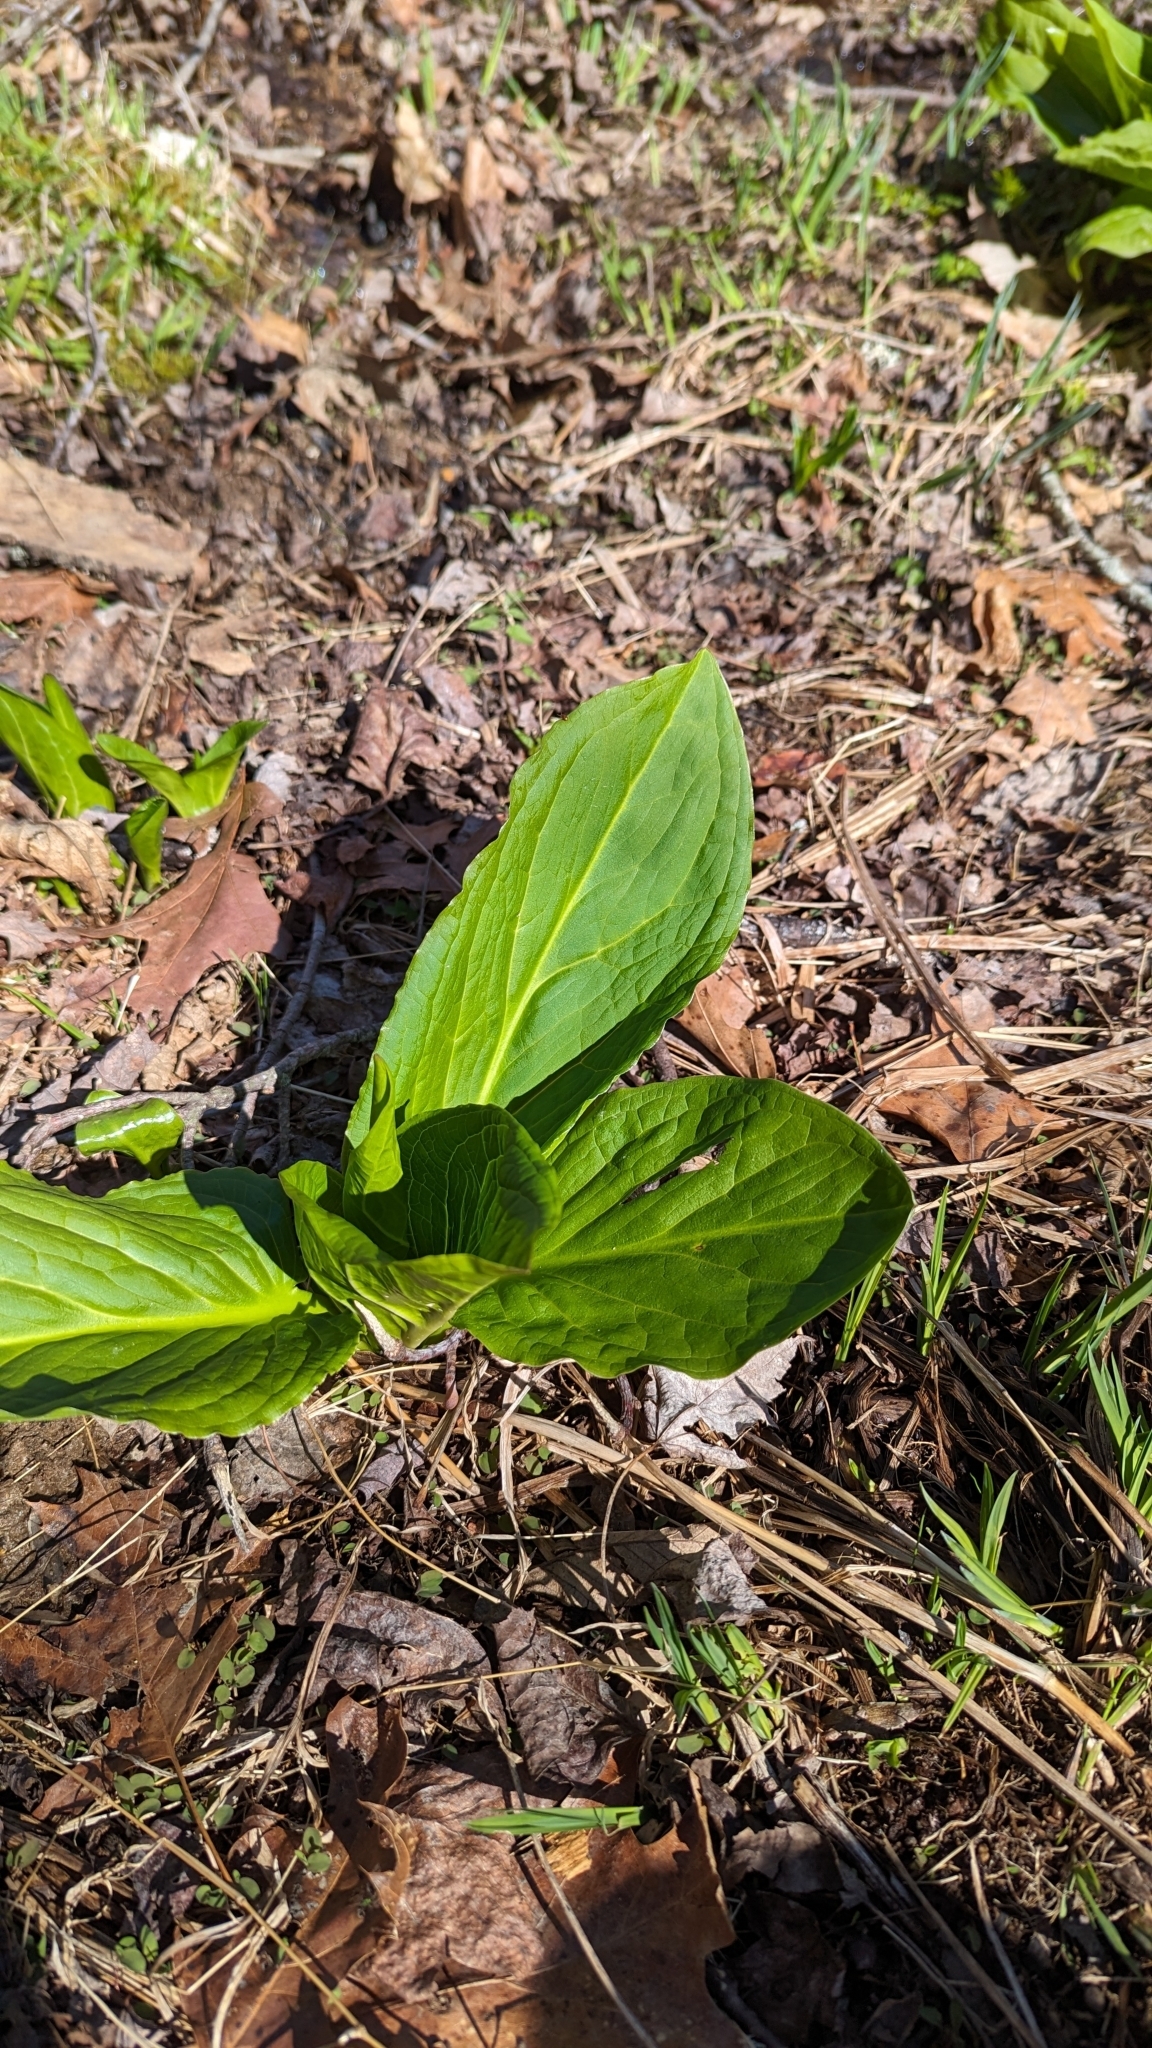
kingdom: Plantae
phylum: Tracheophyta
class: Liliopsida
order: Alismatales
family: Araceae
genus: Symplocarpus
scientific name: Symplocarpus foetidus
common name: Eastern skunk cabbage
